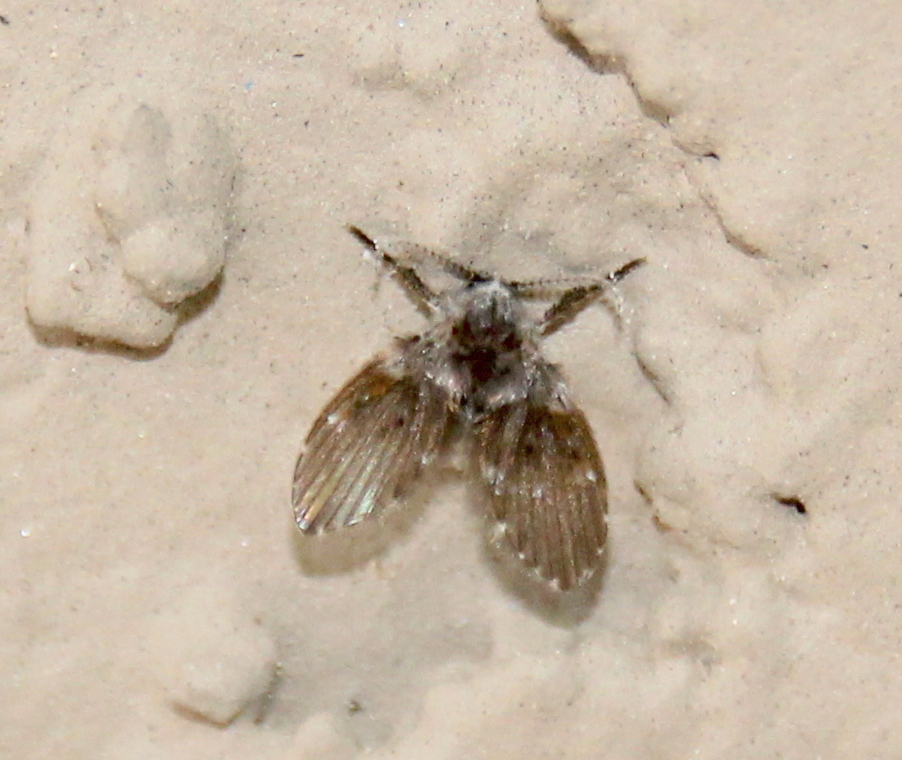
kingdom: Animalia
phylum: Arthropoda
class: Insecta
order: Diptera
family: Psychodidae
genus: Clogmia
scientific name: Clogmia albipunctatus
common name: White-spotted moth fly
